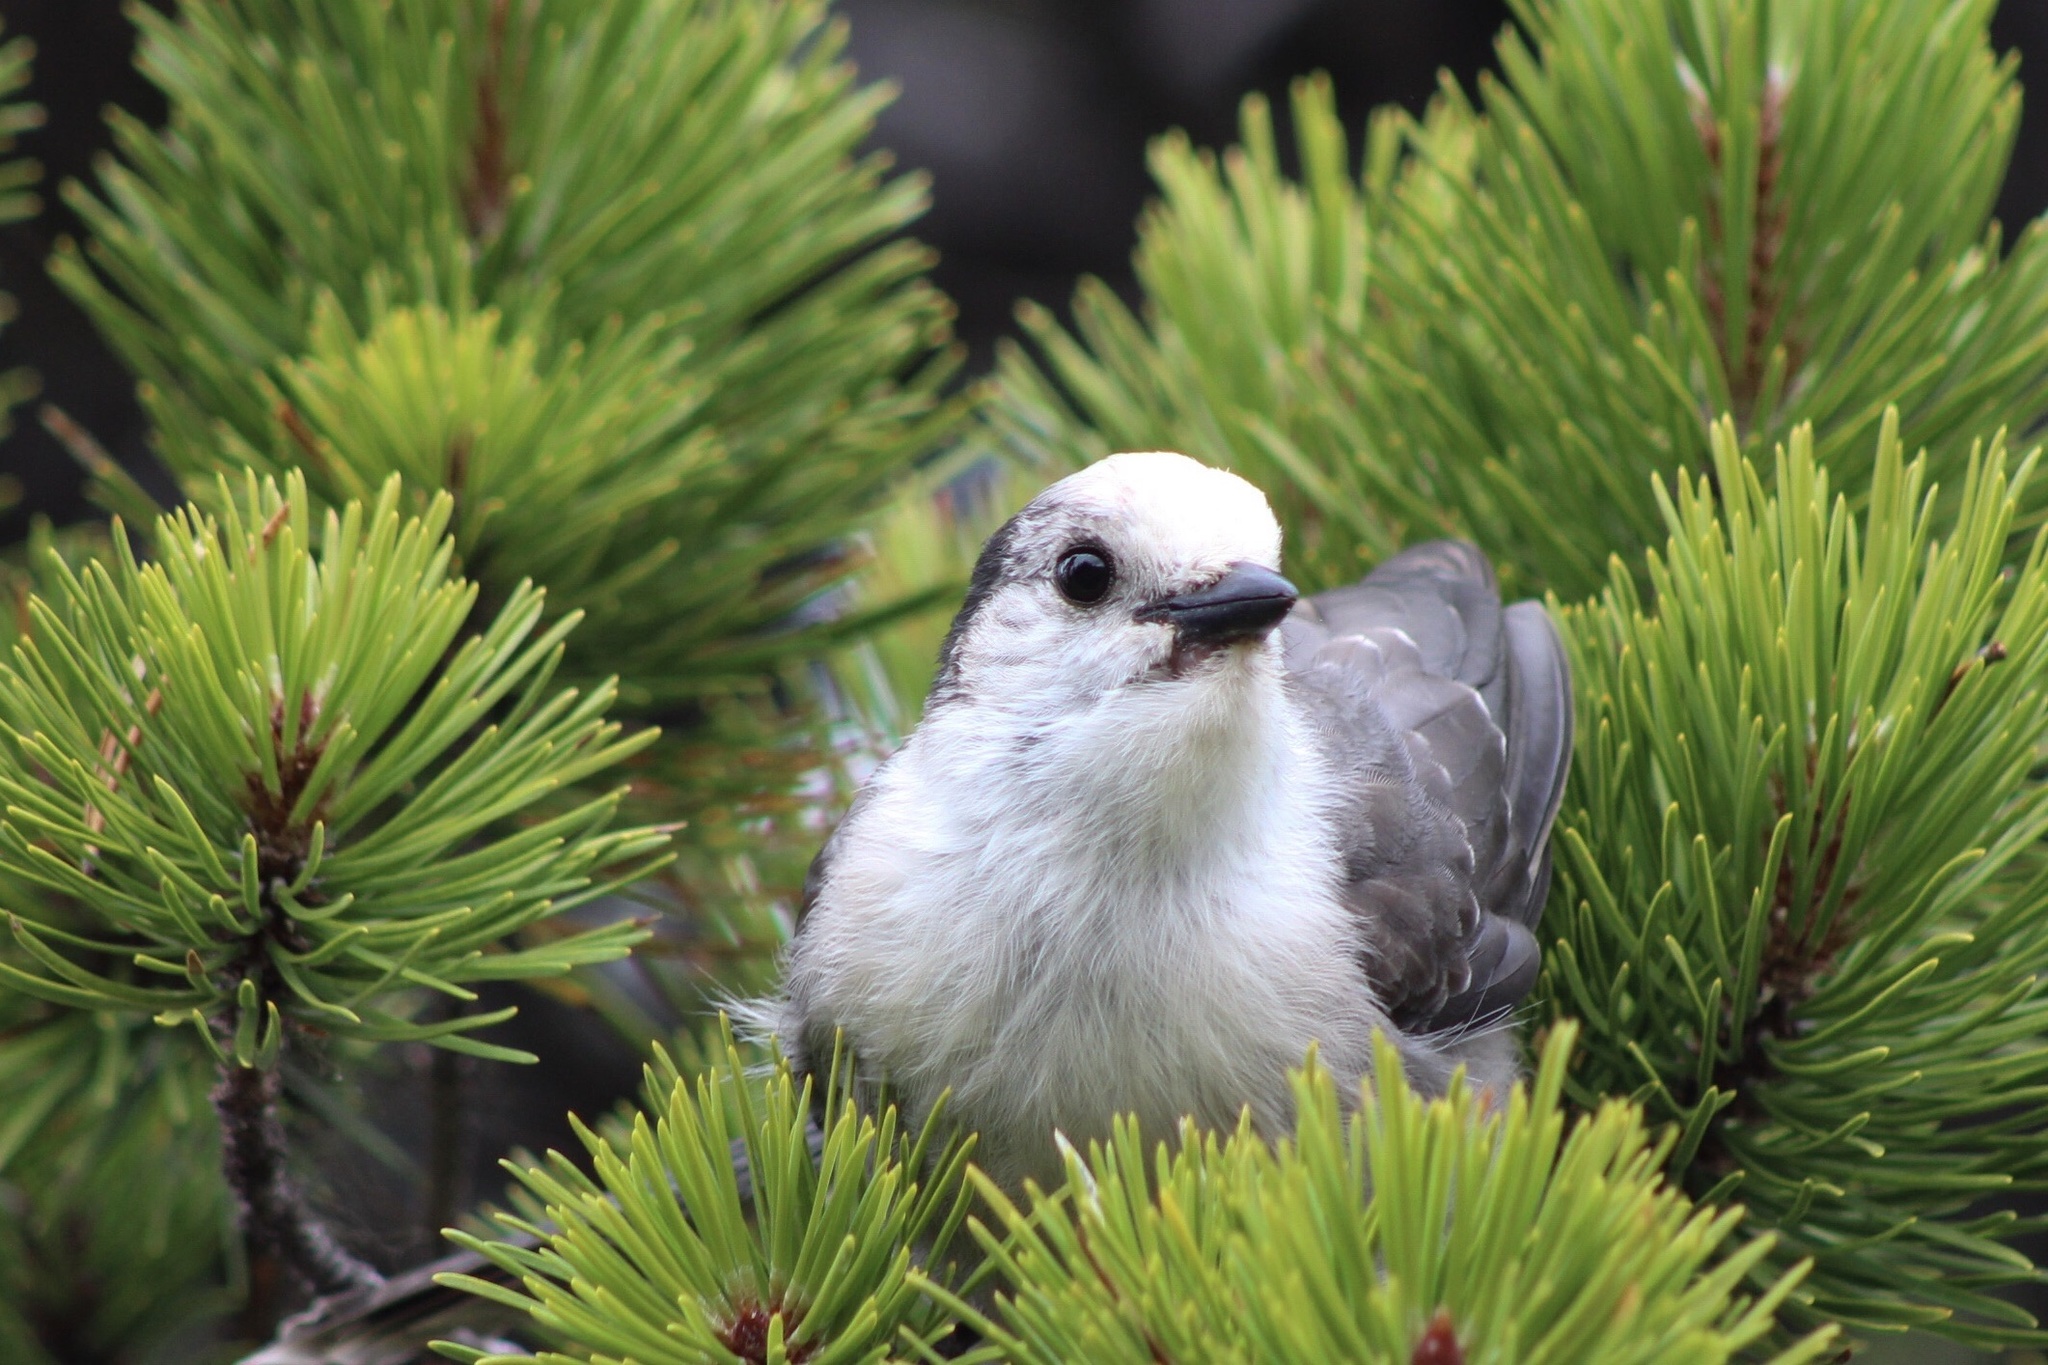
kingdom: Animalia
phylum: Chordata
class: Aves
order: Passeriformes
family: Corvidae
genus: Perisoreus
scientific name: Perisoreus canadensis
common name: Gray jay
